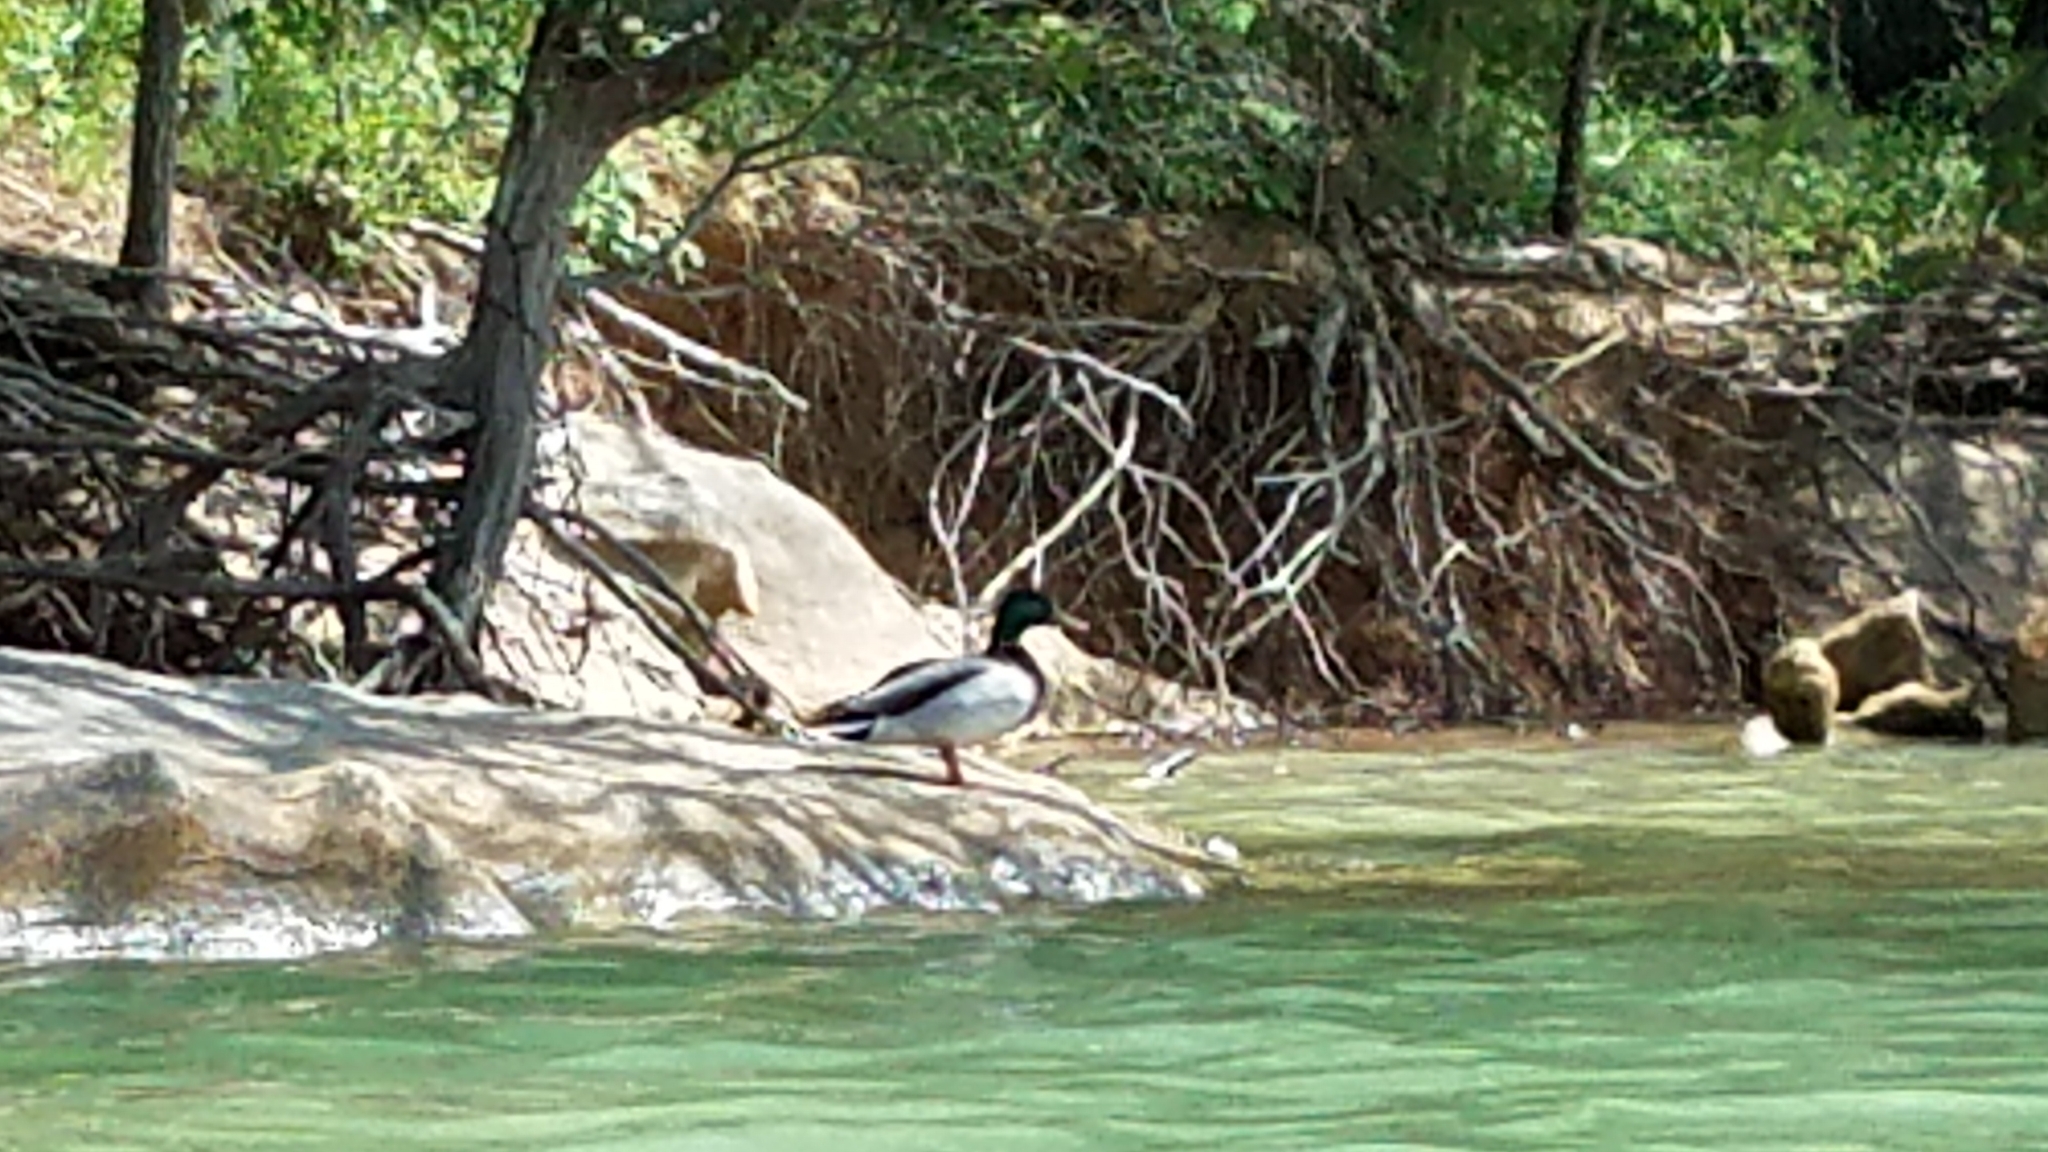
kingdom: Animalia
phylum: Chordata
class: Aves
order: Anseriformes
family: Anatidae
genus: Anas
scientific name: Anas platyrhynchos
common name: Mallard
